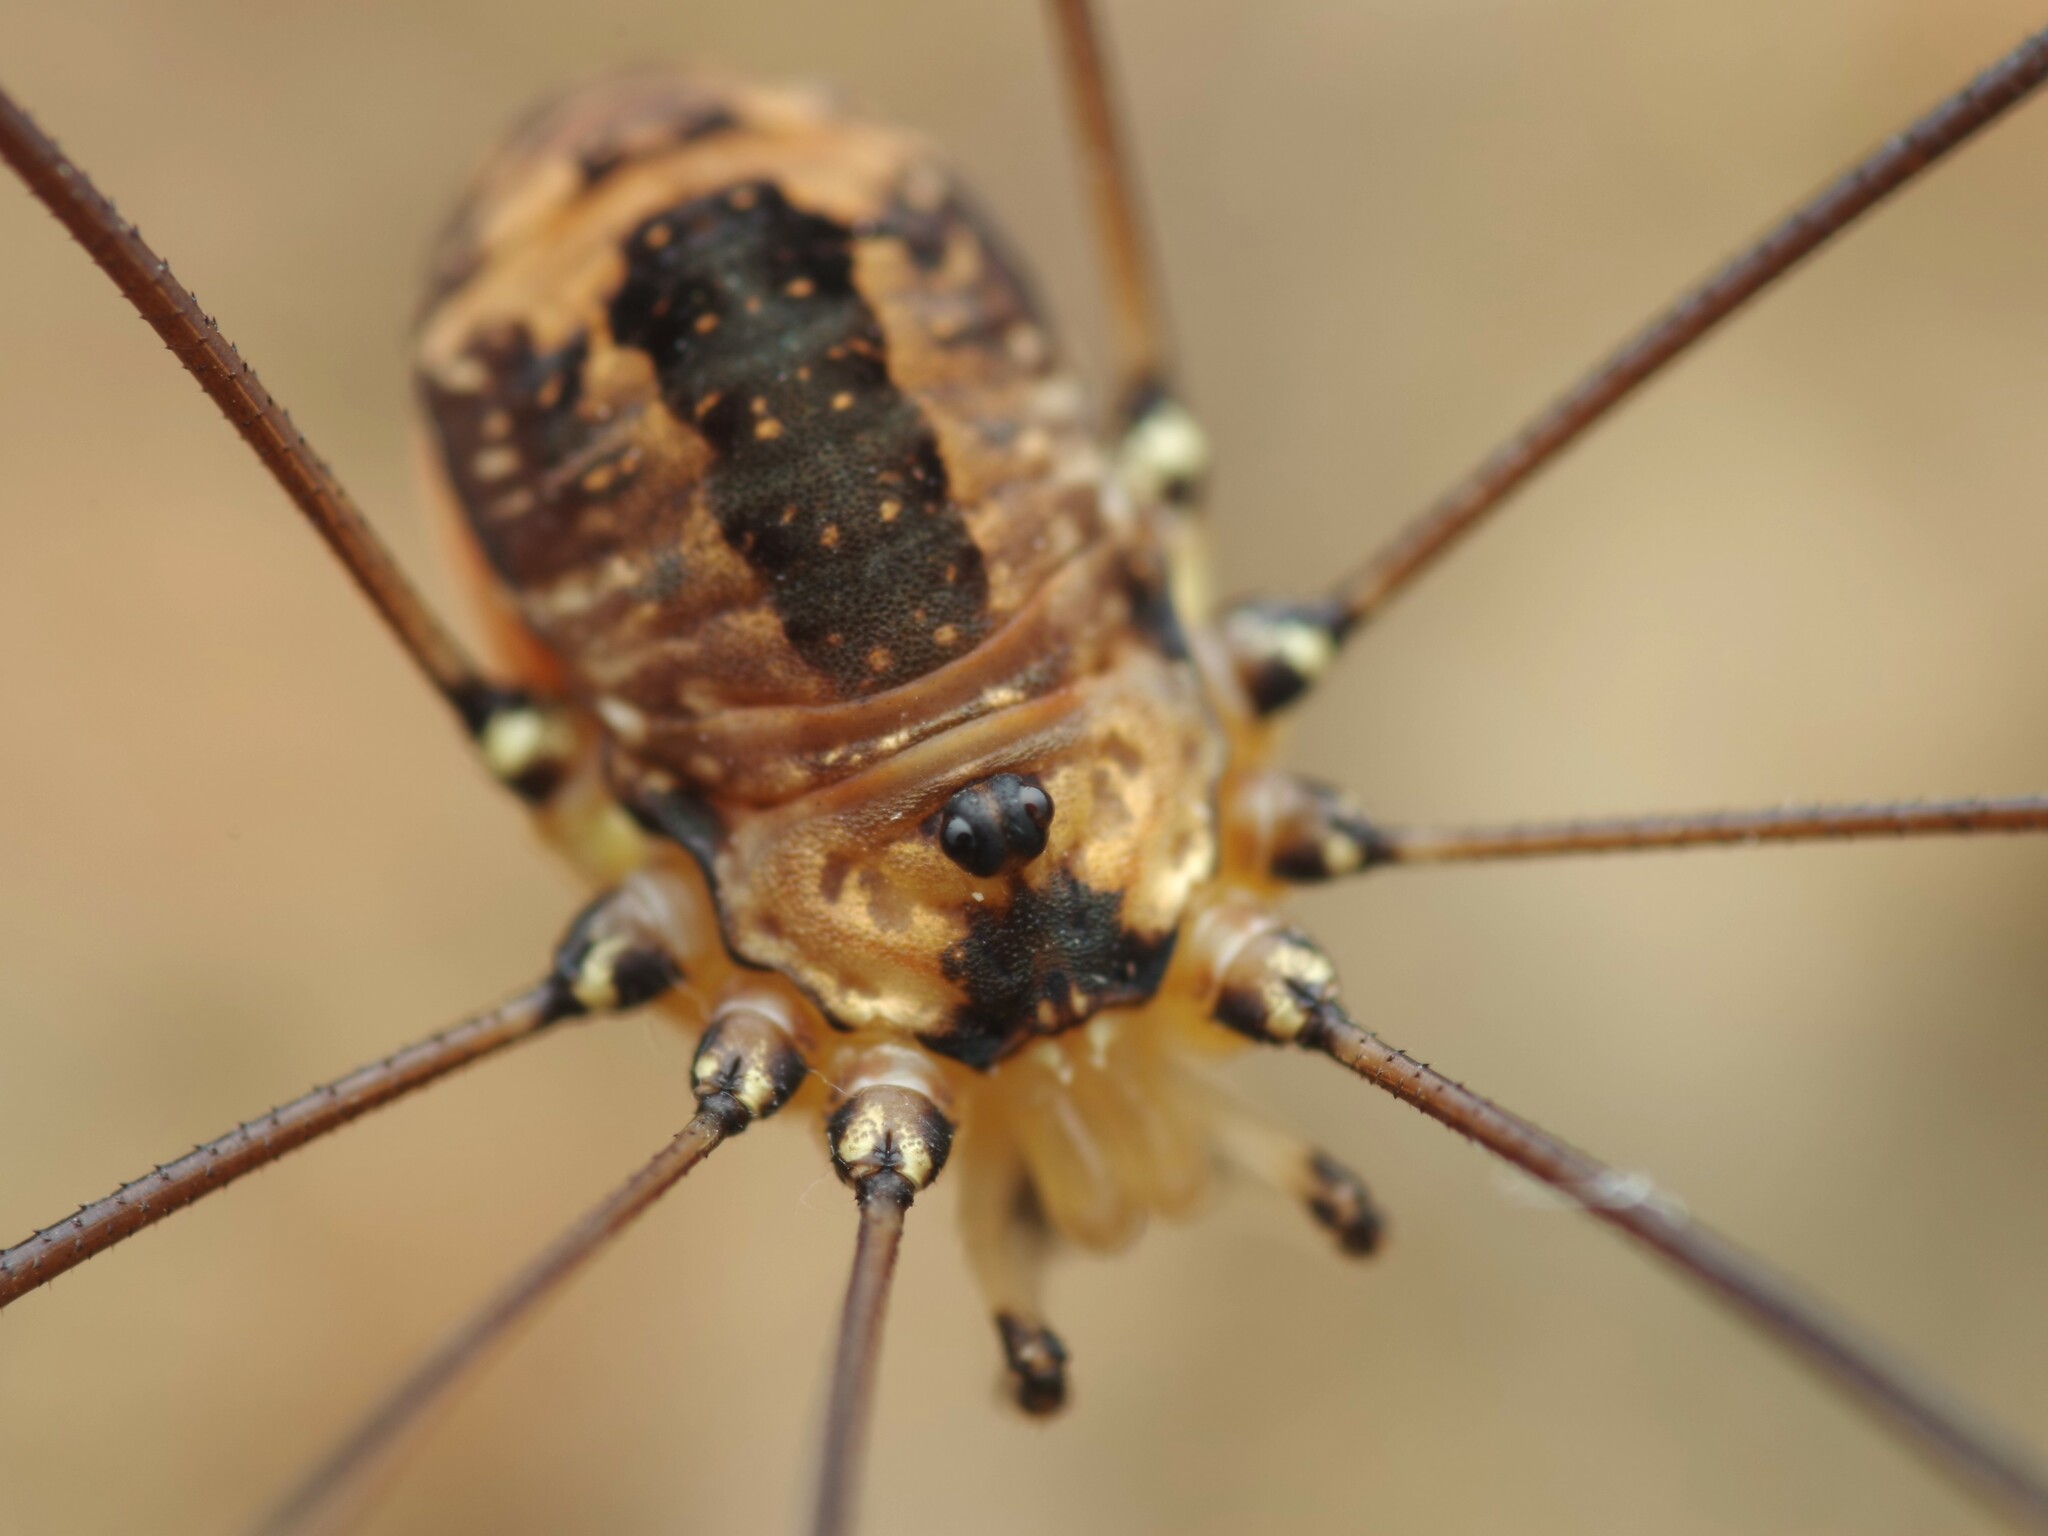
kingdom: Animalia
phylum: Arthropoda
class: Arachnida
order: Opiliones
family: Sclerosomatidae
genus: Leiobunum
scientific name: Leiobunum rotundum
